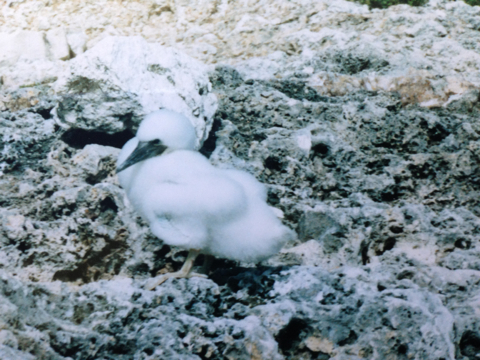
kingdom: Animalia
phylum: Chordata
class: Aves
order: Suliformes
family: Sulidae
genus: Sula
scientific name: Sula leucogaster
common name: Brown booby
